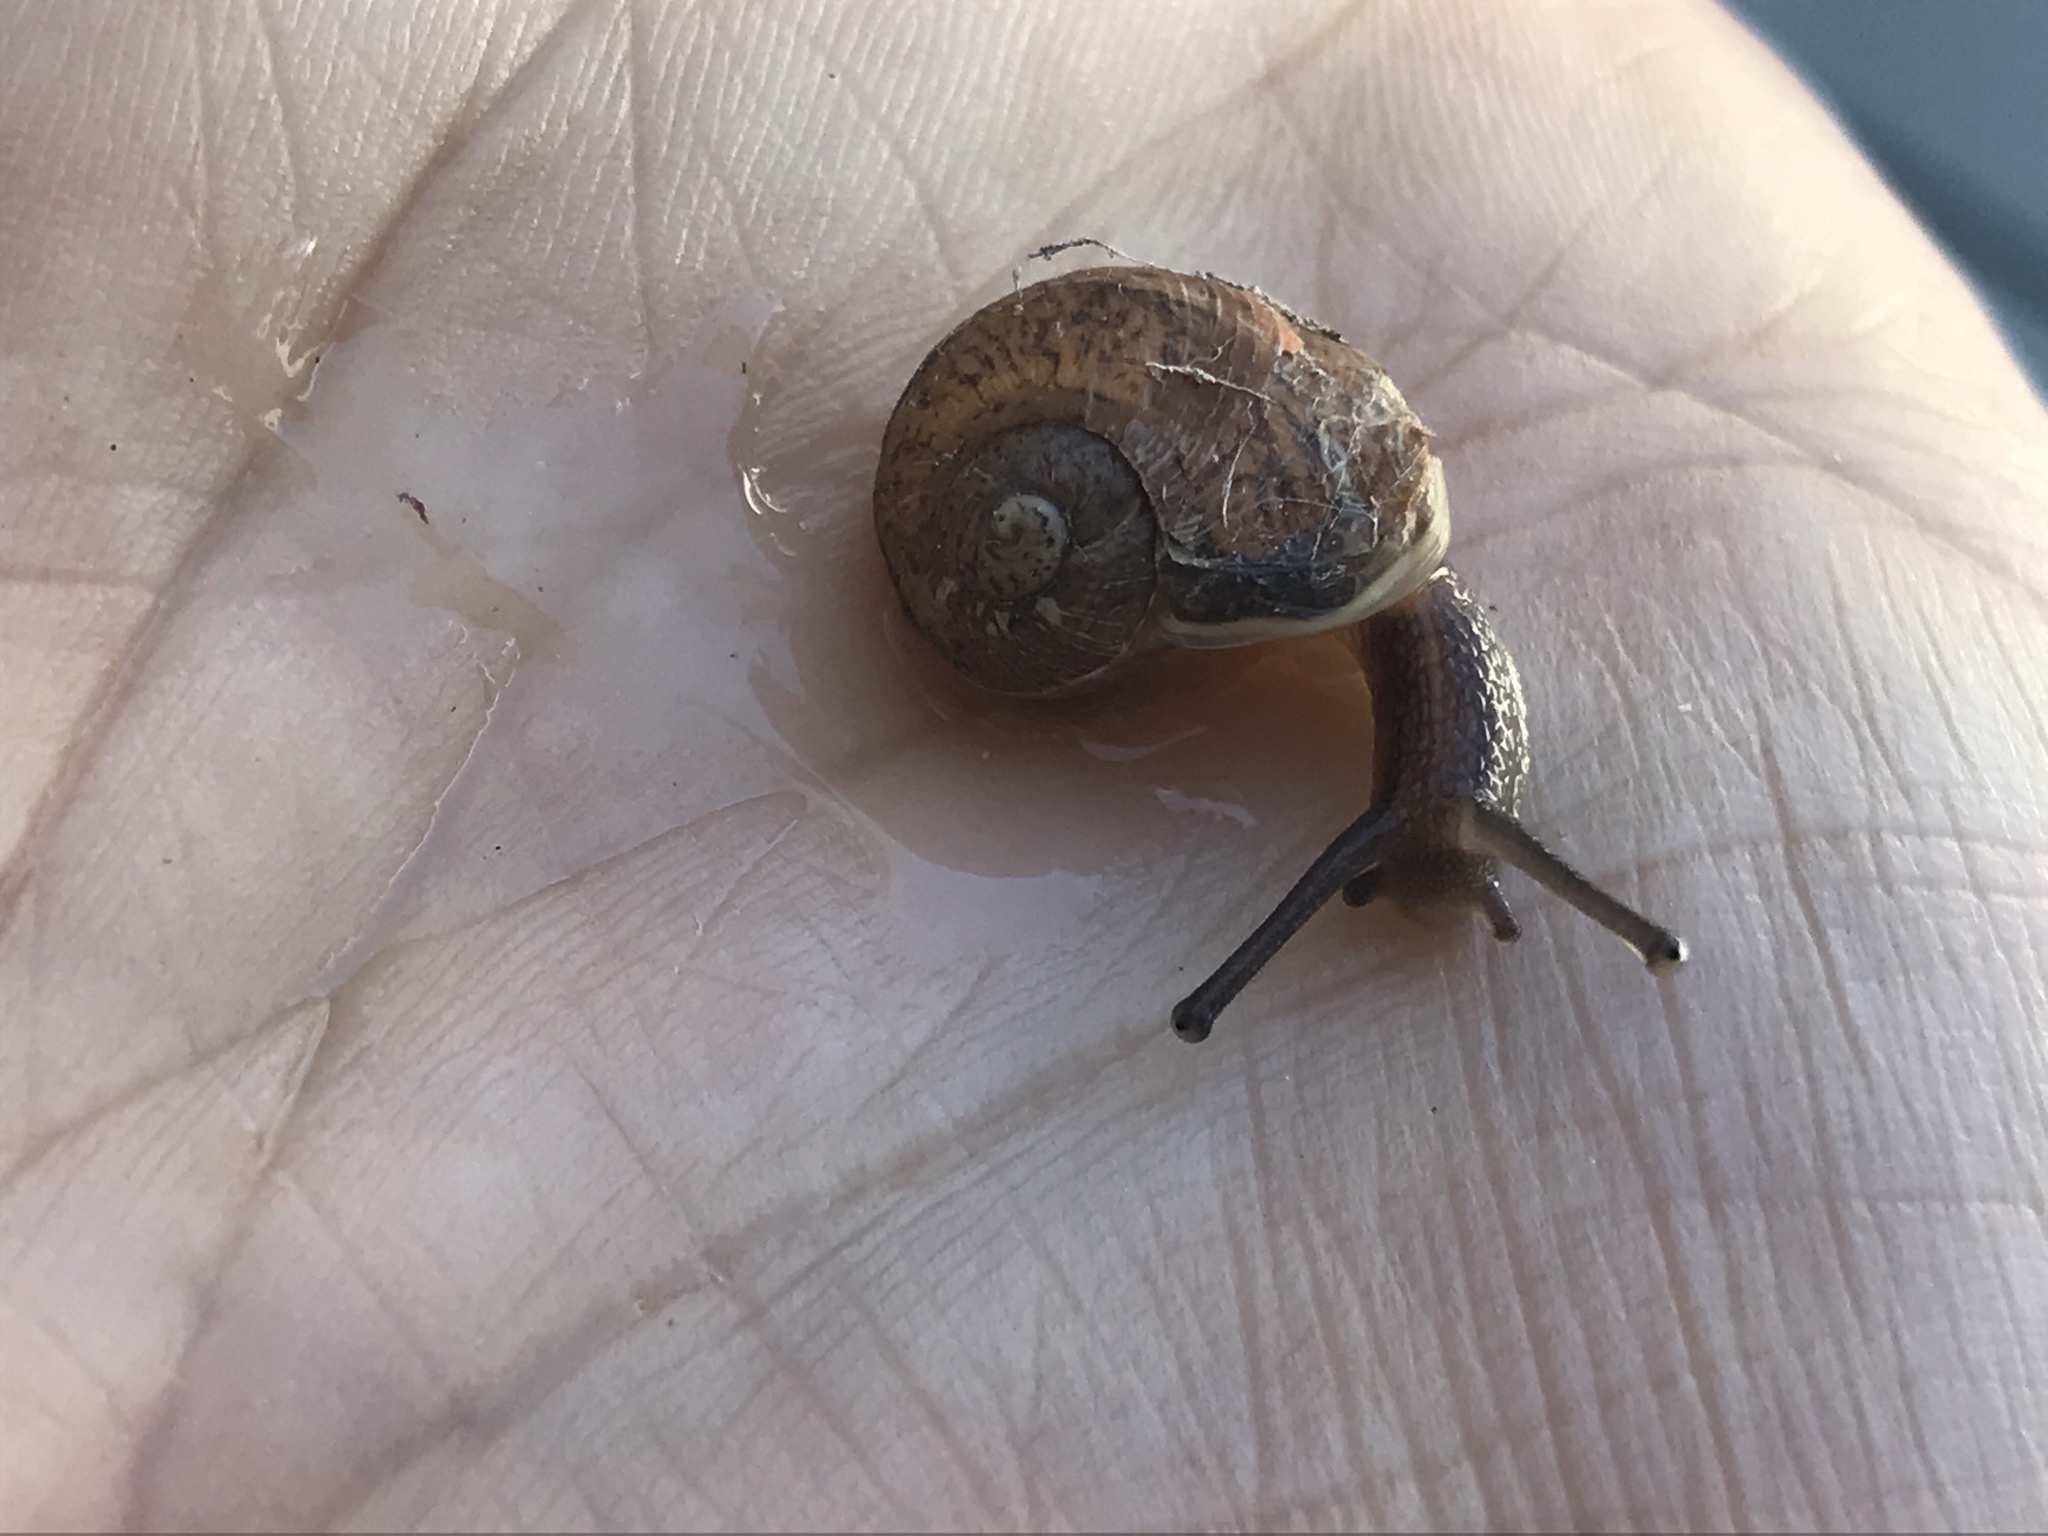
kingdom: Animalia
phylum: Mollusca
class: Gastropoda
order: Stylommatophora
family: Helicidae
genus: Cornu
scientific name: Cornu aspersum
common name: Brown garden snail
